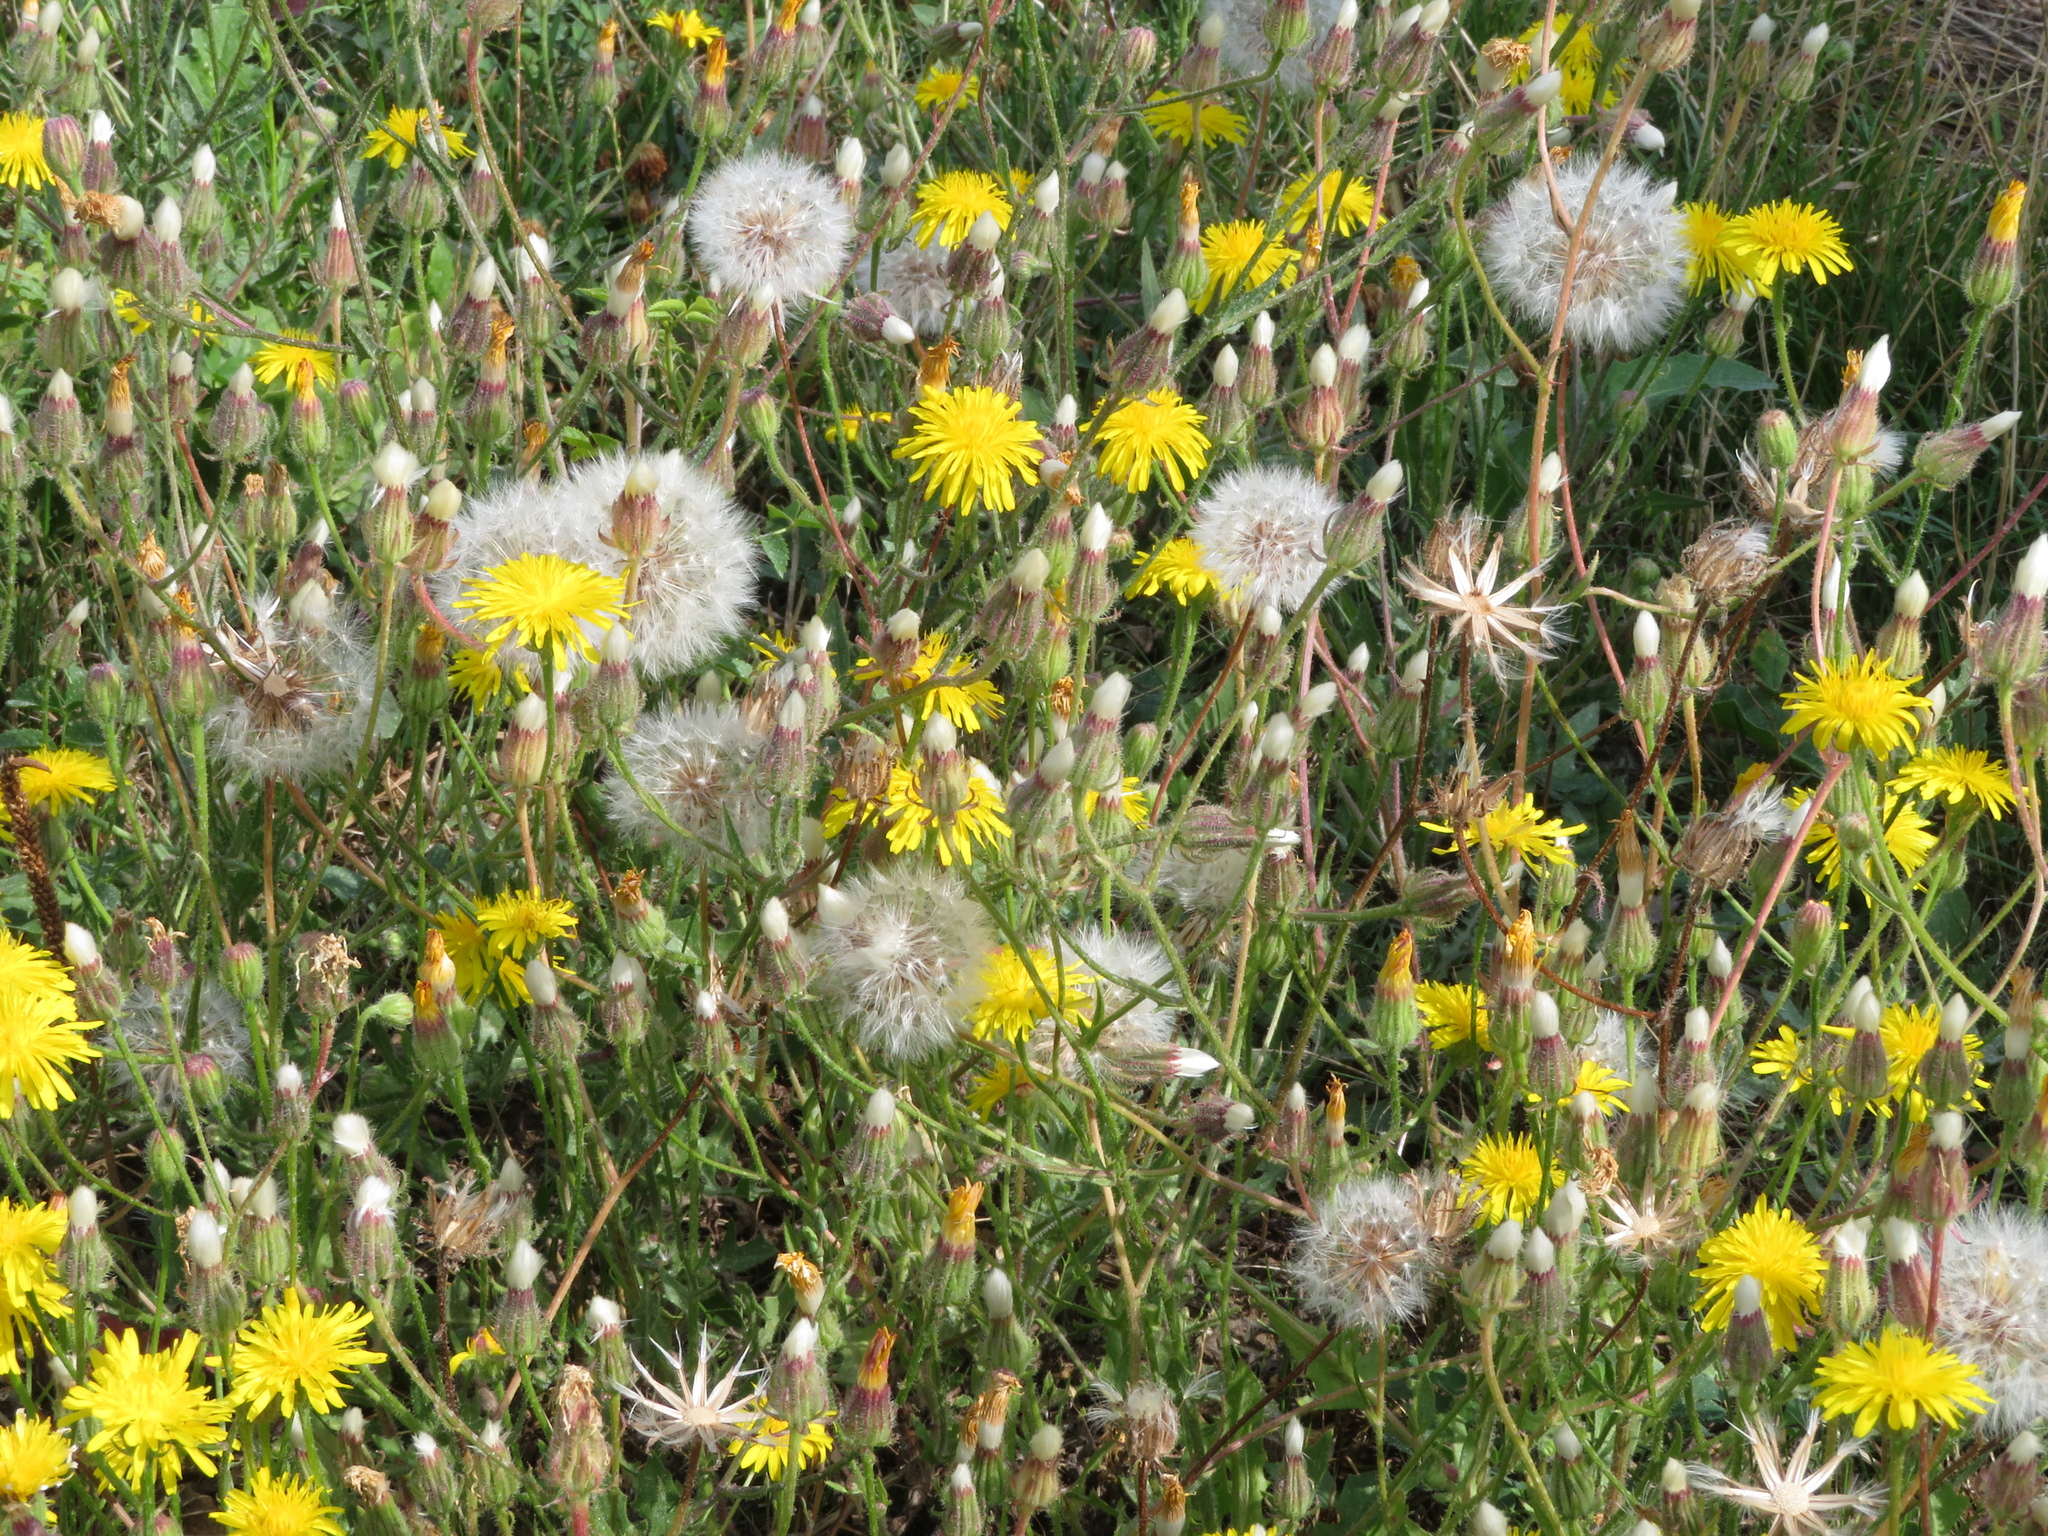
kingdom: Plantae
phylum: Tracheophyta
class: Magnoliopsida
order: Asterales
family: Asteraceae
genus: Crepis
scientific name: Crepis foetida
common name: Stinking hawk's-beard
